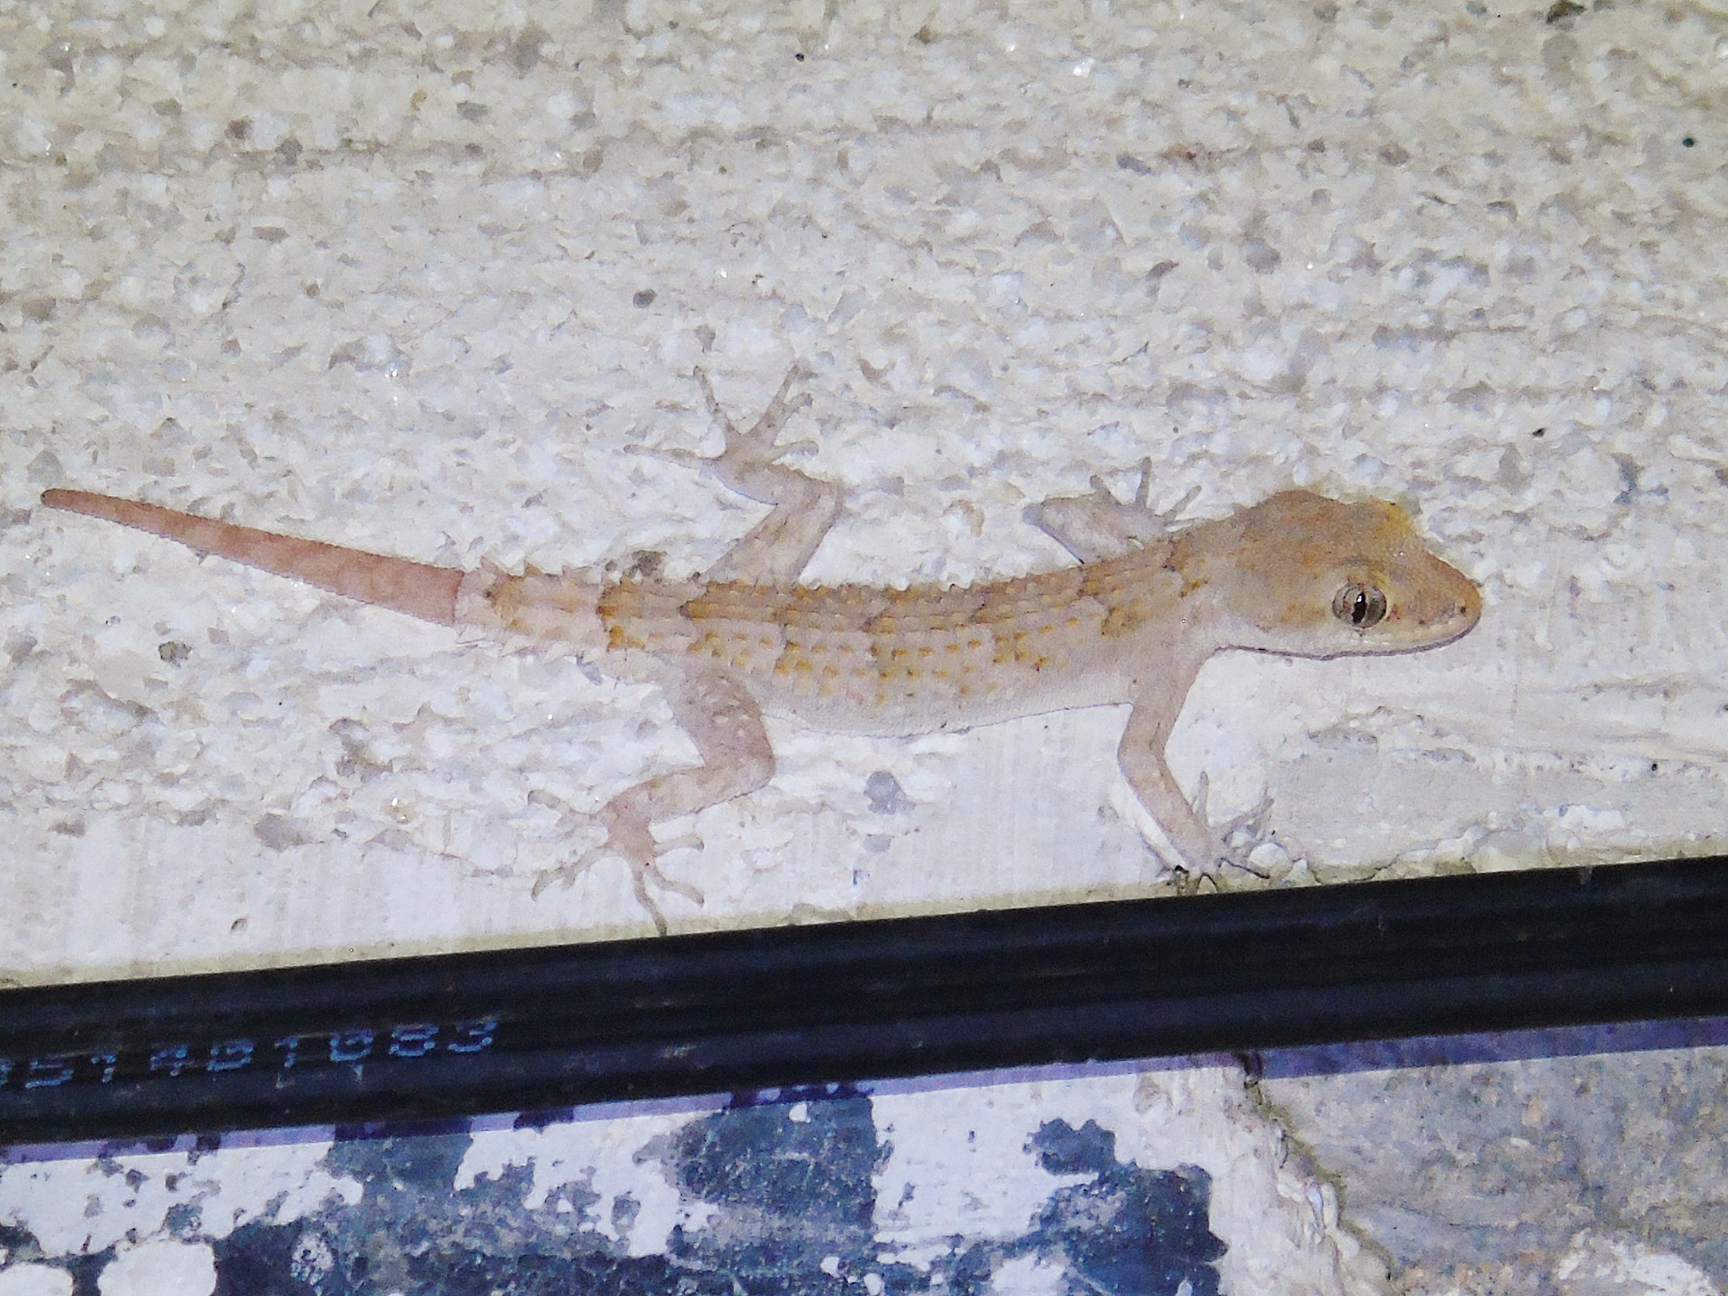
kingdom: Animalia
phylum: Chordata
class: Squamata
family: Gekkonidae
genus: Mediodactylus
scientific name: Mediodactylus orientalis
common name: Mediterranean thin-toed gecko
